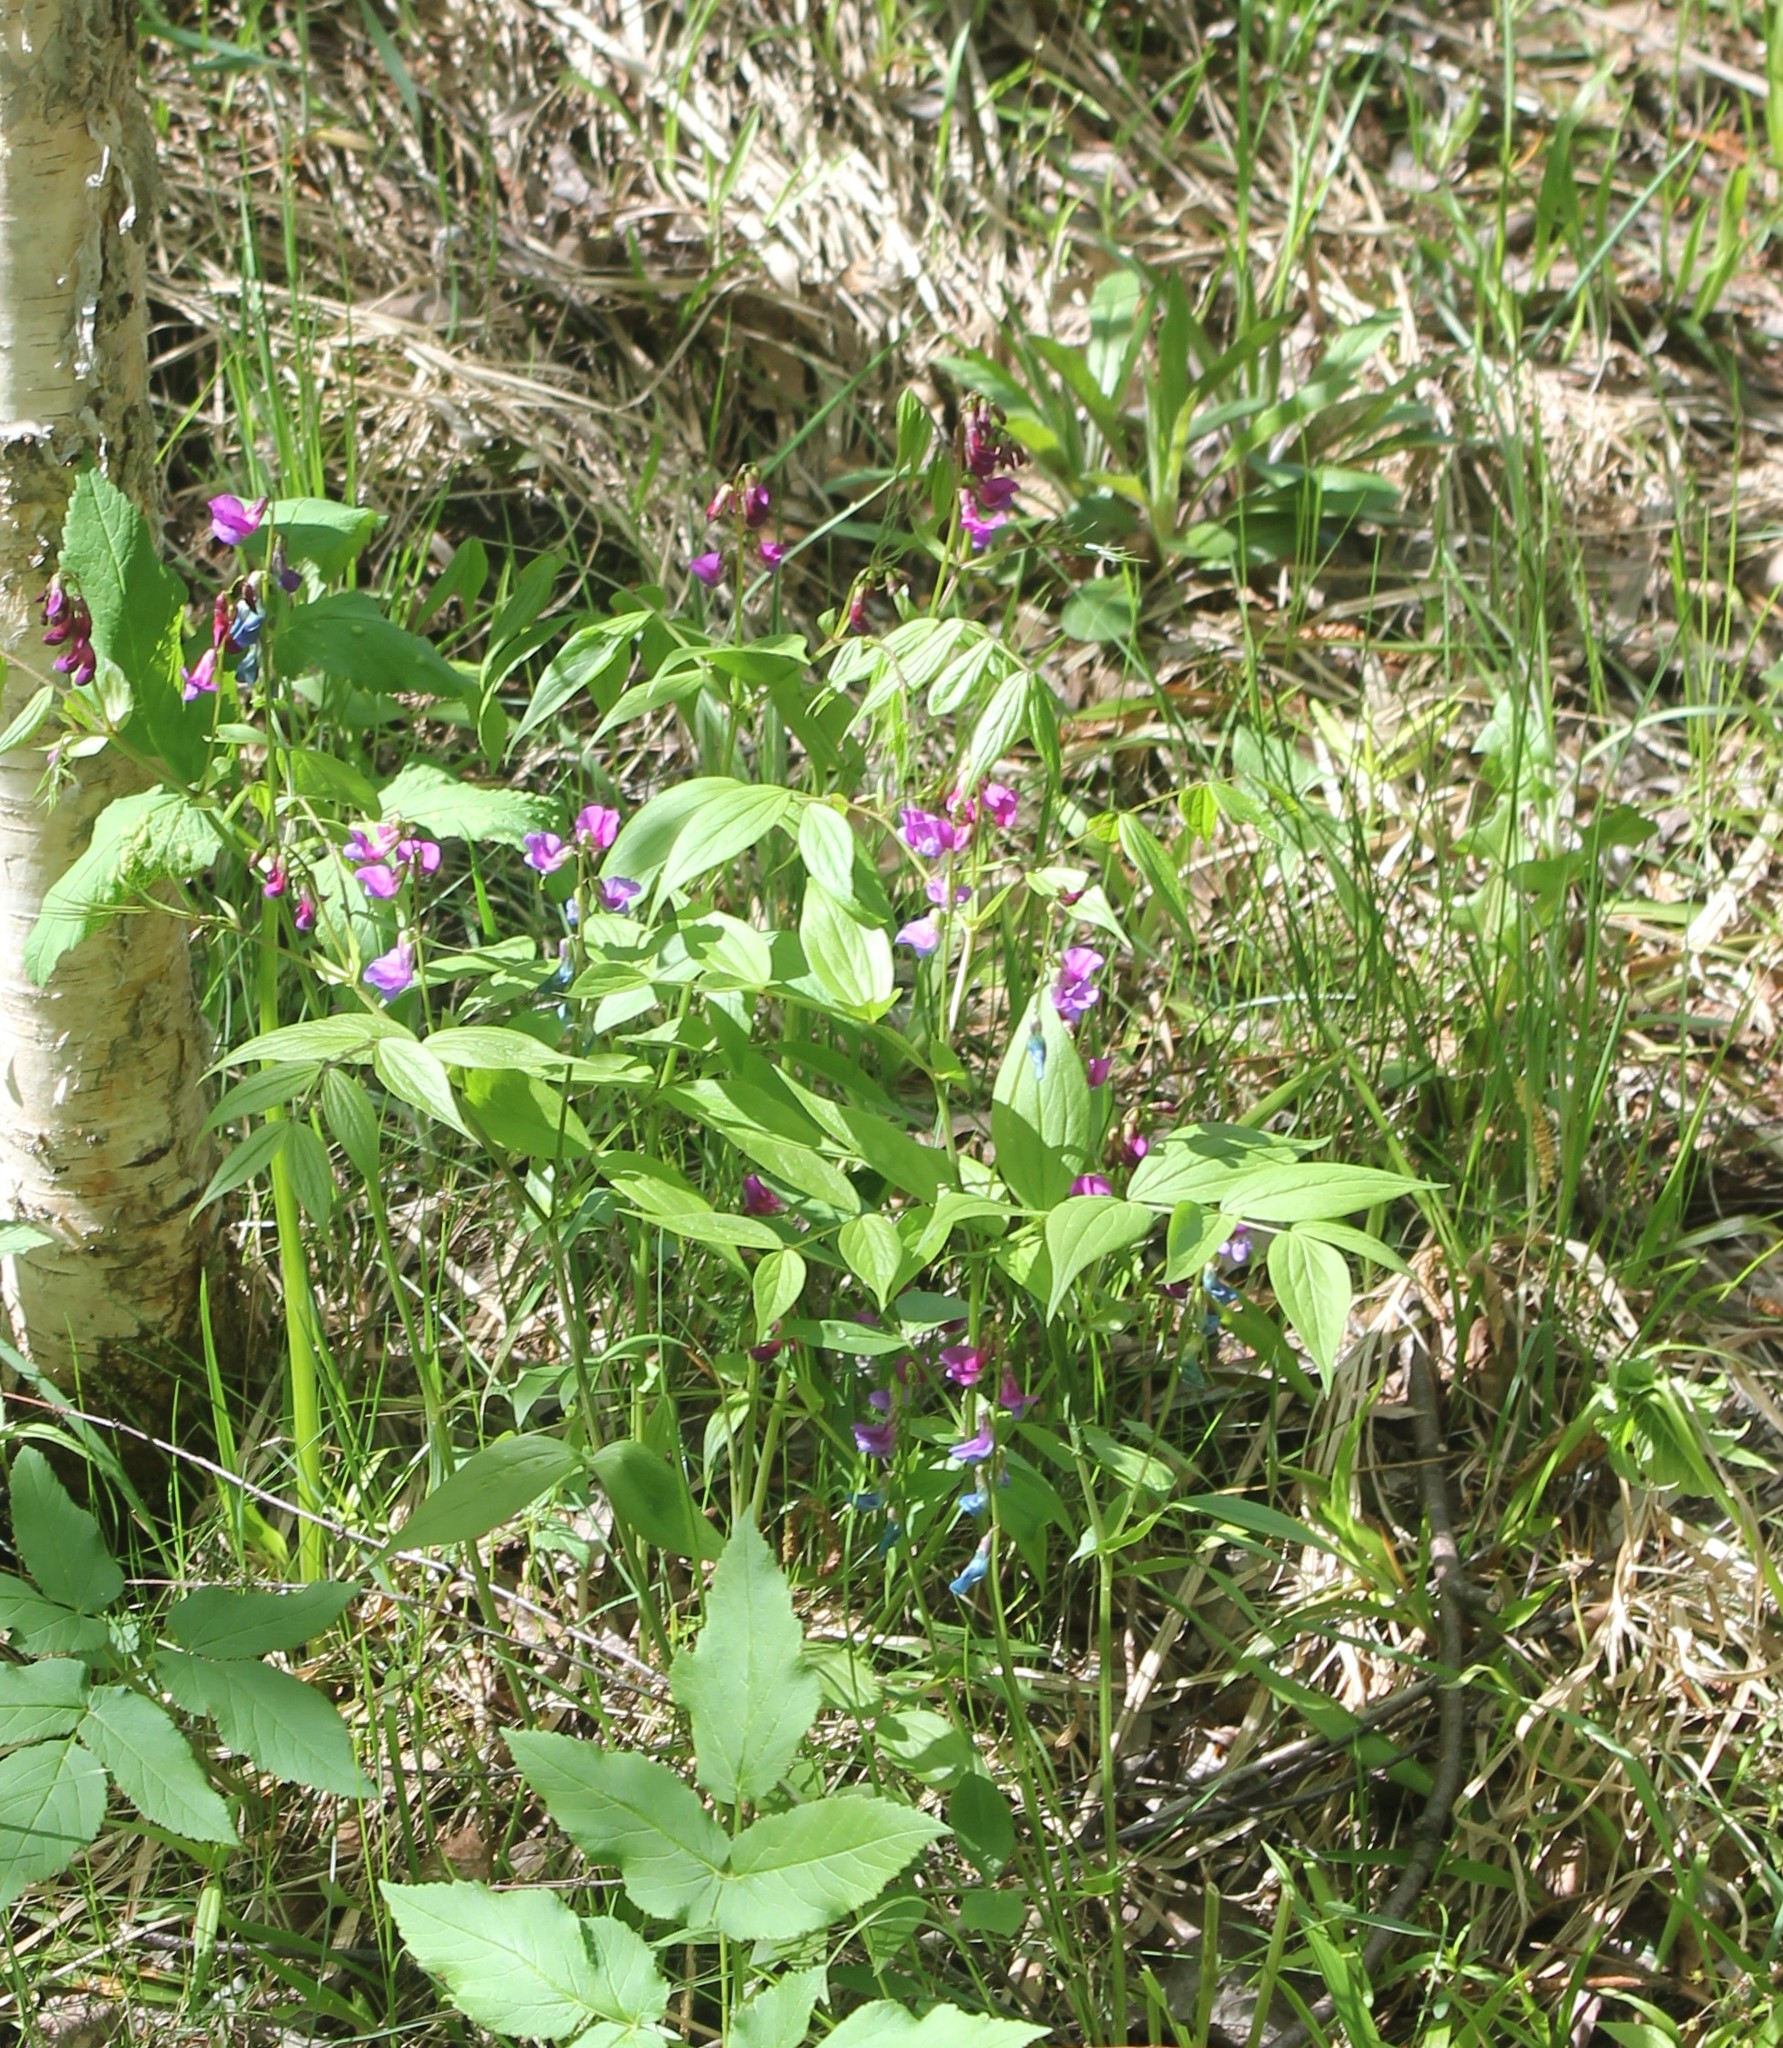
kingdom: Plantae
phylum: Tracheophyta
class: Magnoliopsida
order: Fabales
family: Fabaceae
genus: Lathyrus
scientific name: Lathyrus vernus
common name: Spring pea
